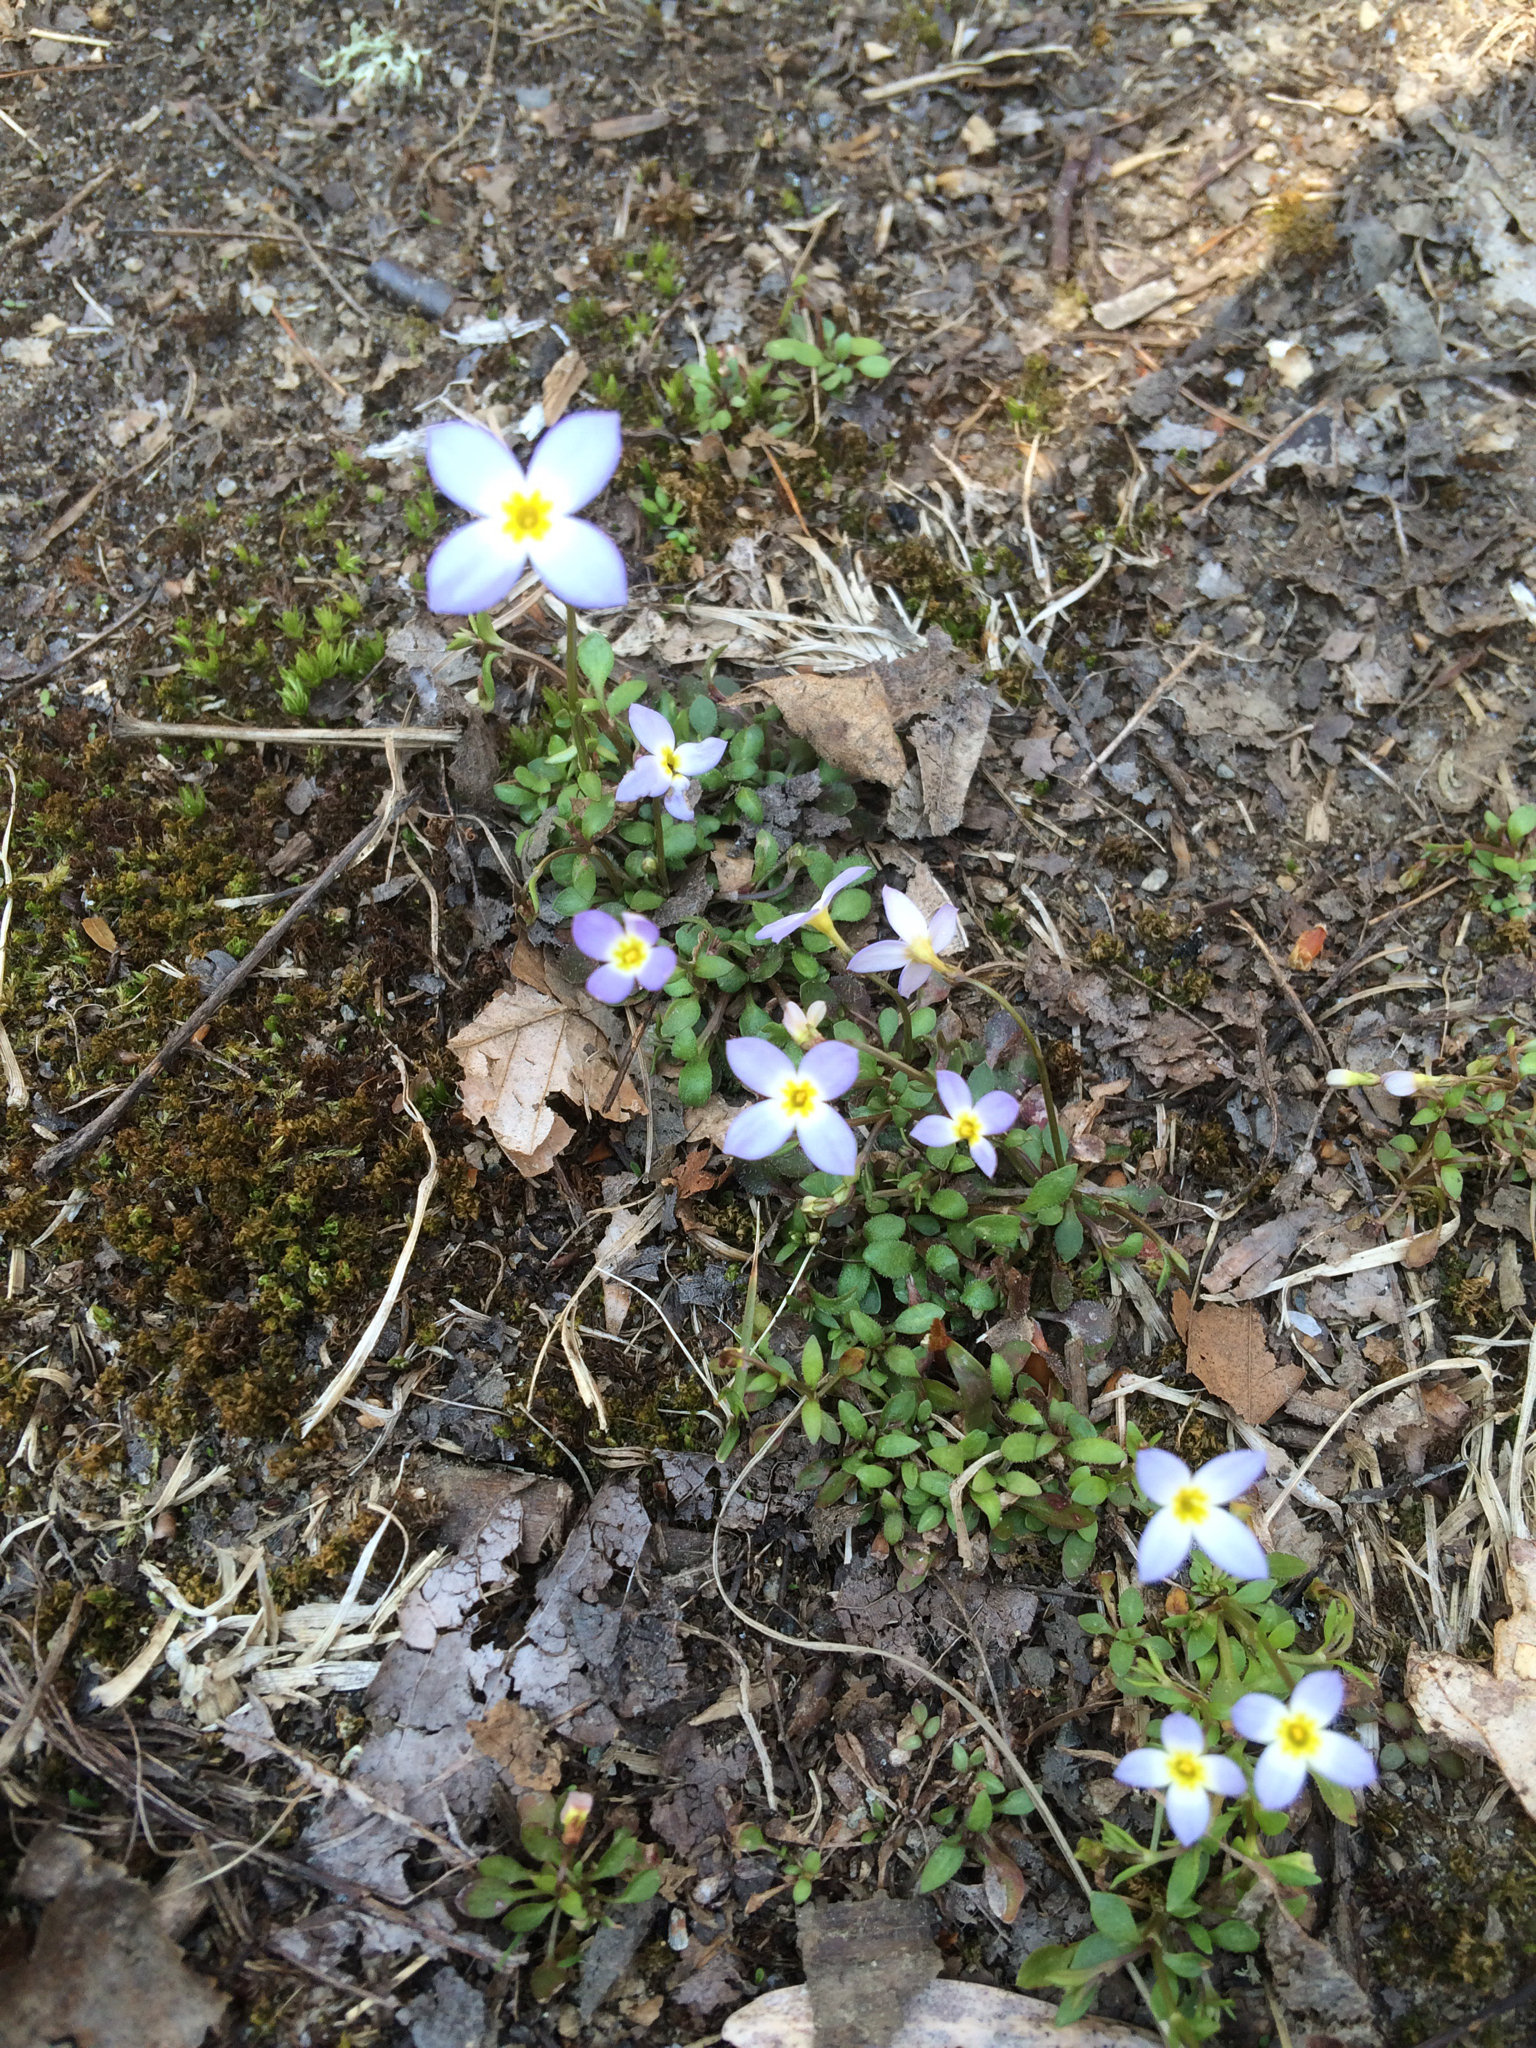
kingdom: Plantae
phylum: Tracheophyta
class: Magnoliopsida
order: Gentianales
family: Rubiaceae
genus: Houstonia
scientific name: Houstonia caerulea
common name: Bluets
